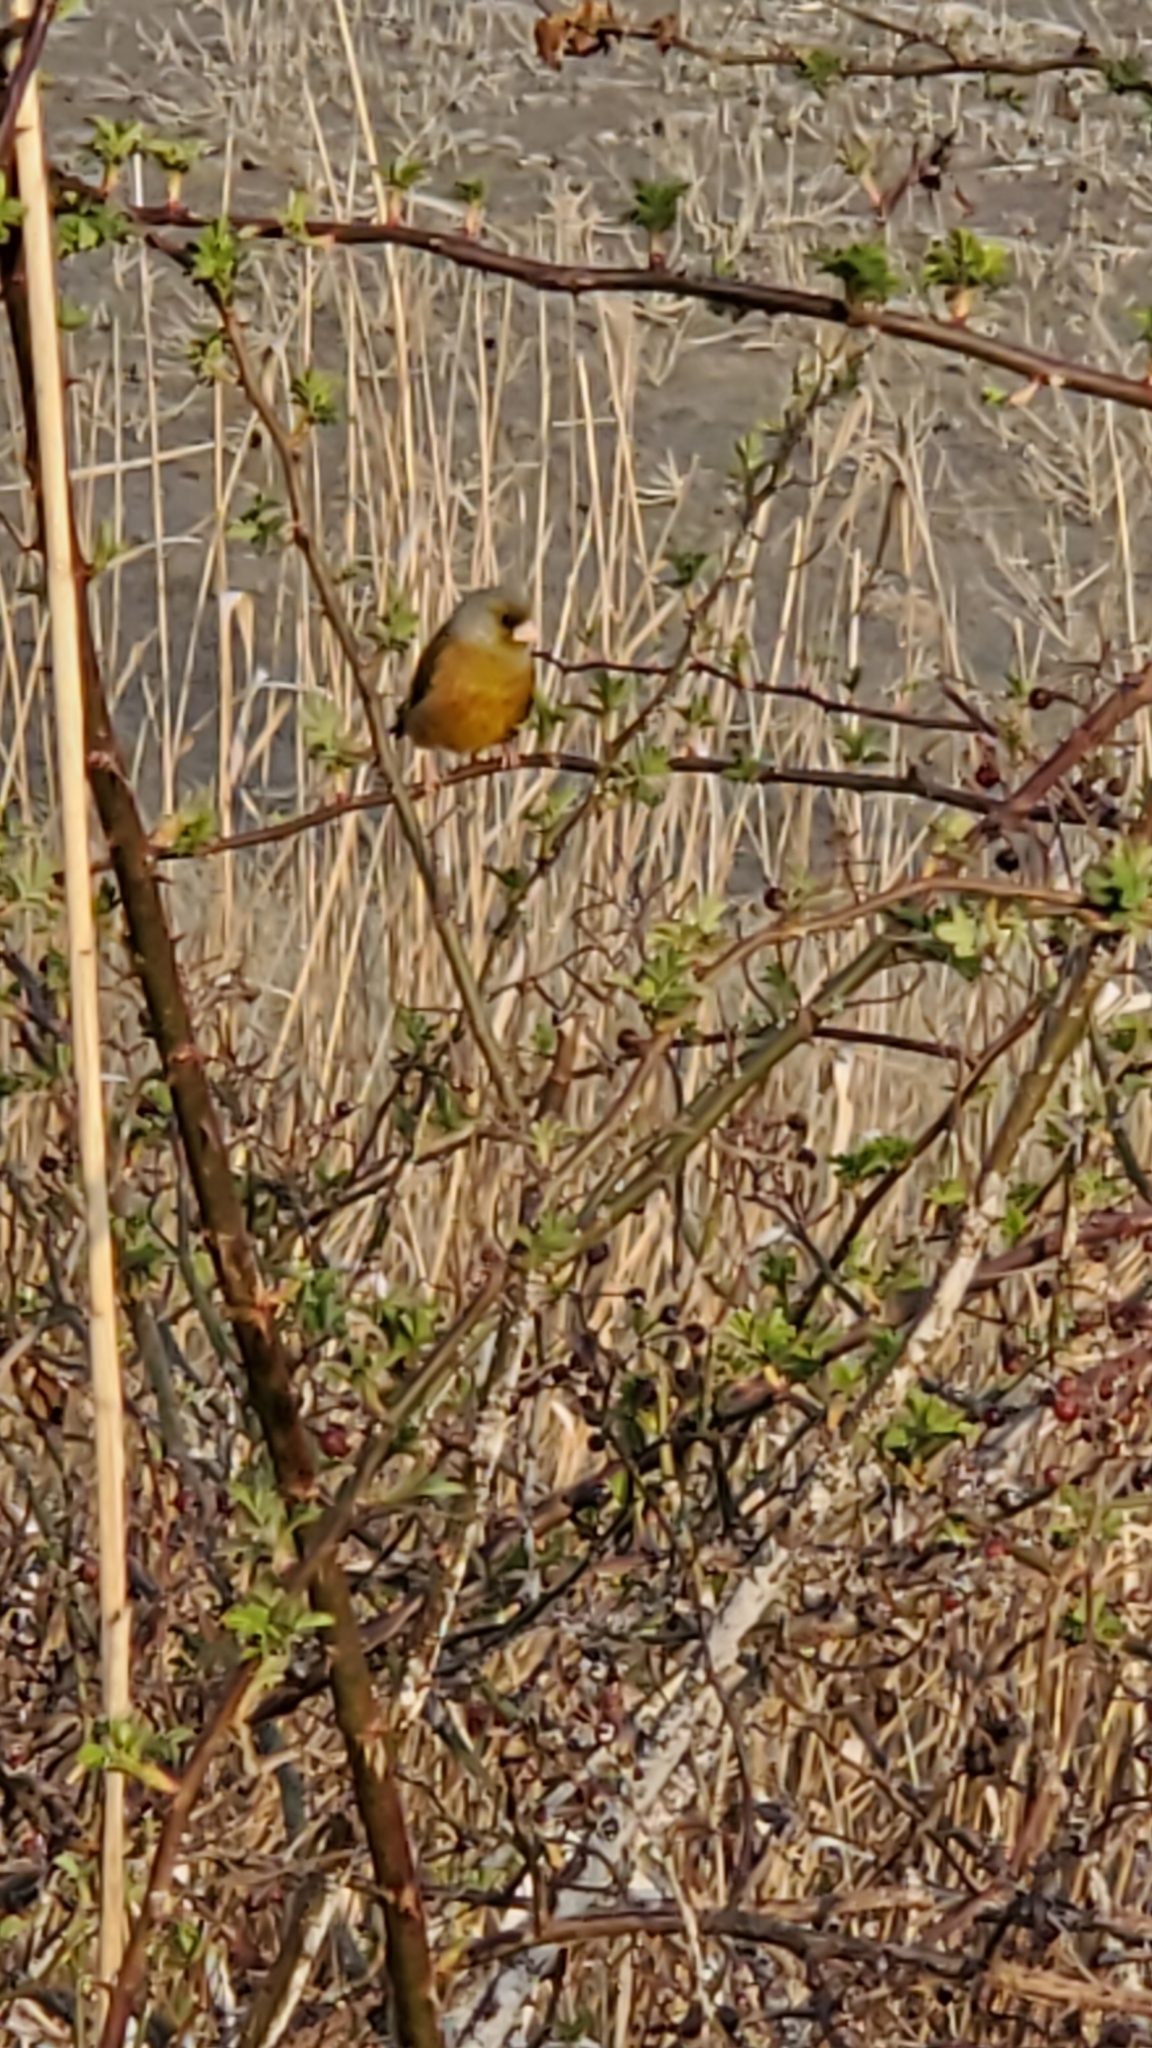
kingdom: Plantae
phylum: Tracheophyta
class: Liliopsida
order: Poales
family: Poaceae
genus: Chloris
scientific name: Chloris sinica
